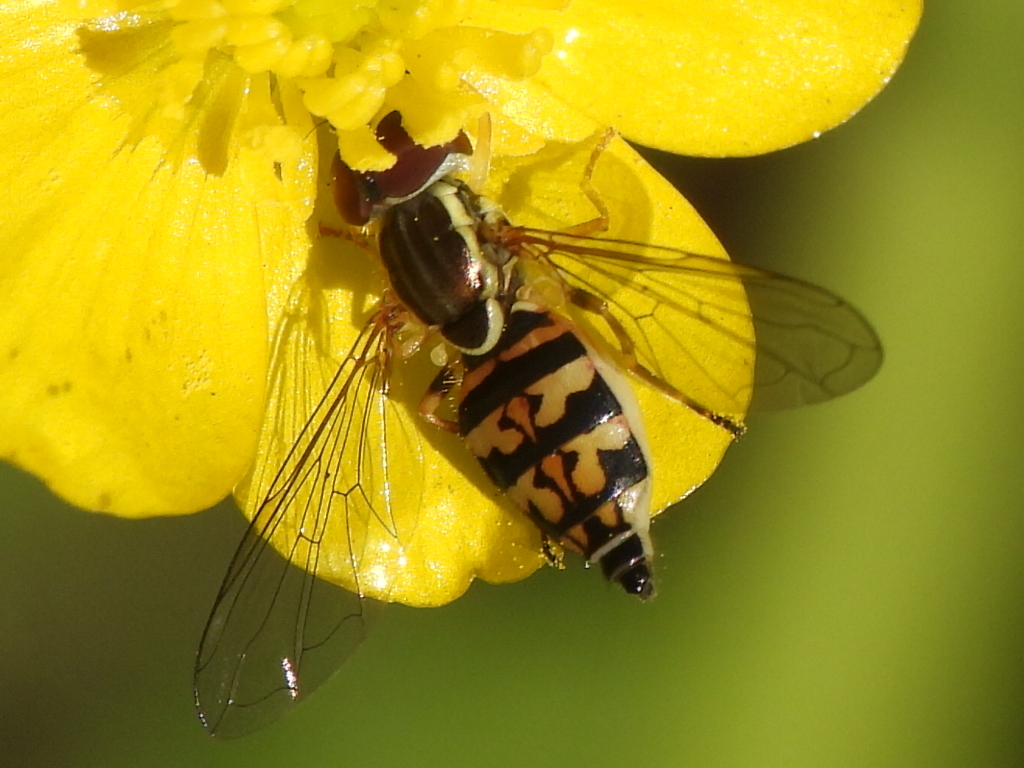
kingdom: Animalia
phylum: Arthropoda
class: Insecta
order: Diptera
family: Syrphidae
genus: Toxomerus
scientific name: Toxomerus geminatus
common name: Eastern calligrapher
